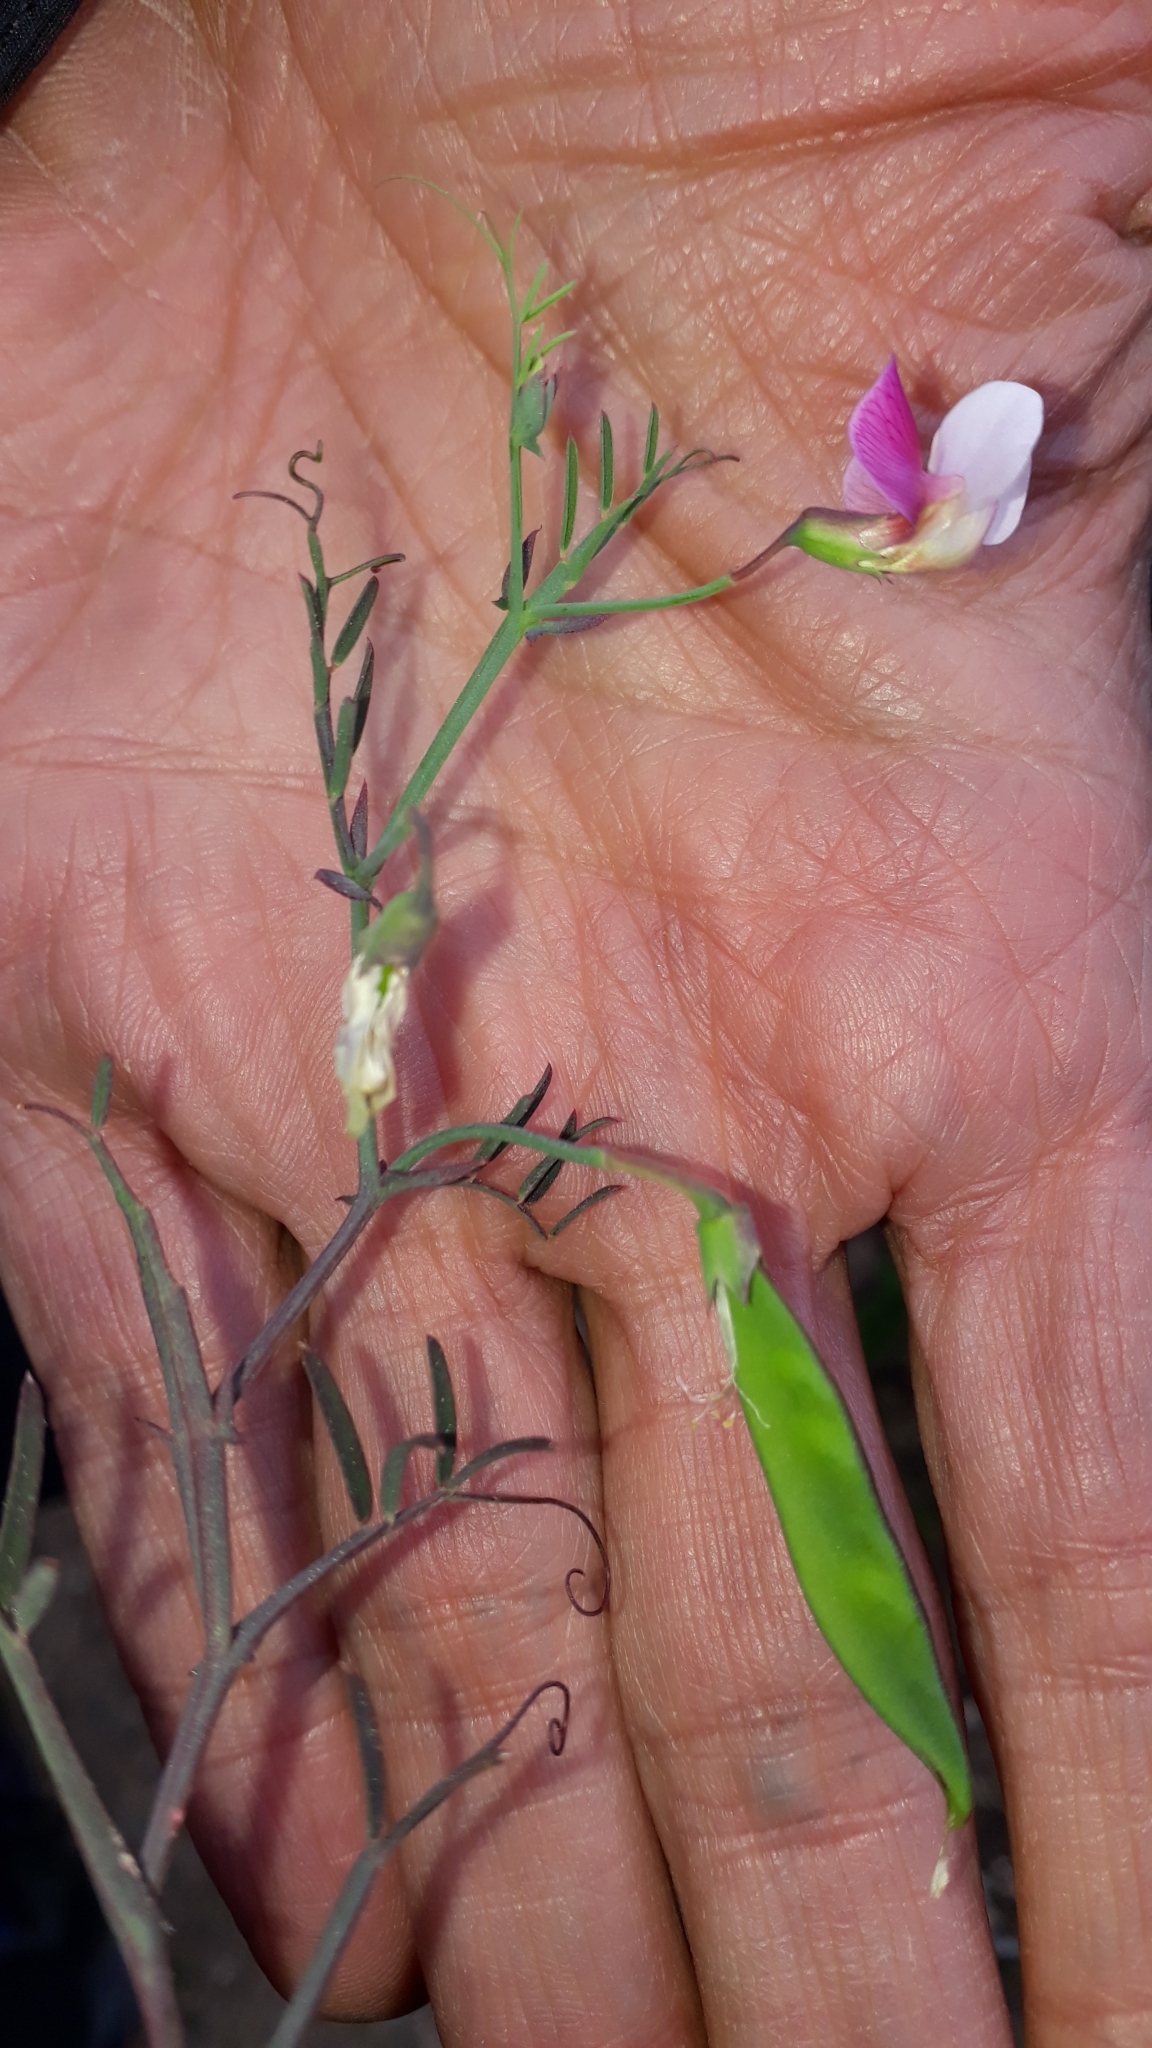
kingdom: Plantae
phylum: Tracheophyta
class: Magnoliopsida
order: Fabales
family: Fabaceae
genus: Lathyrus
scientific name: Lathyrus clymenum
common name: Spanish vetchling
